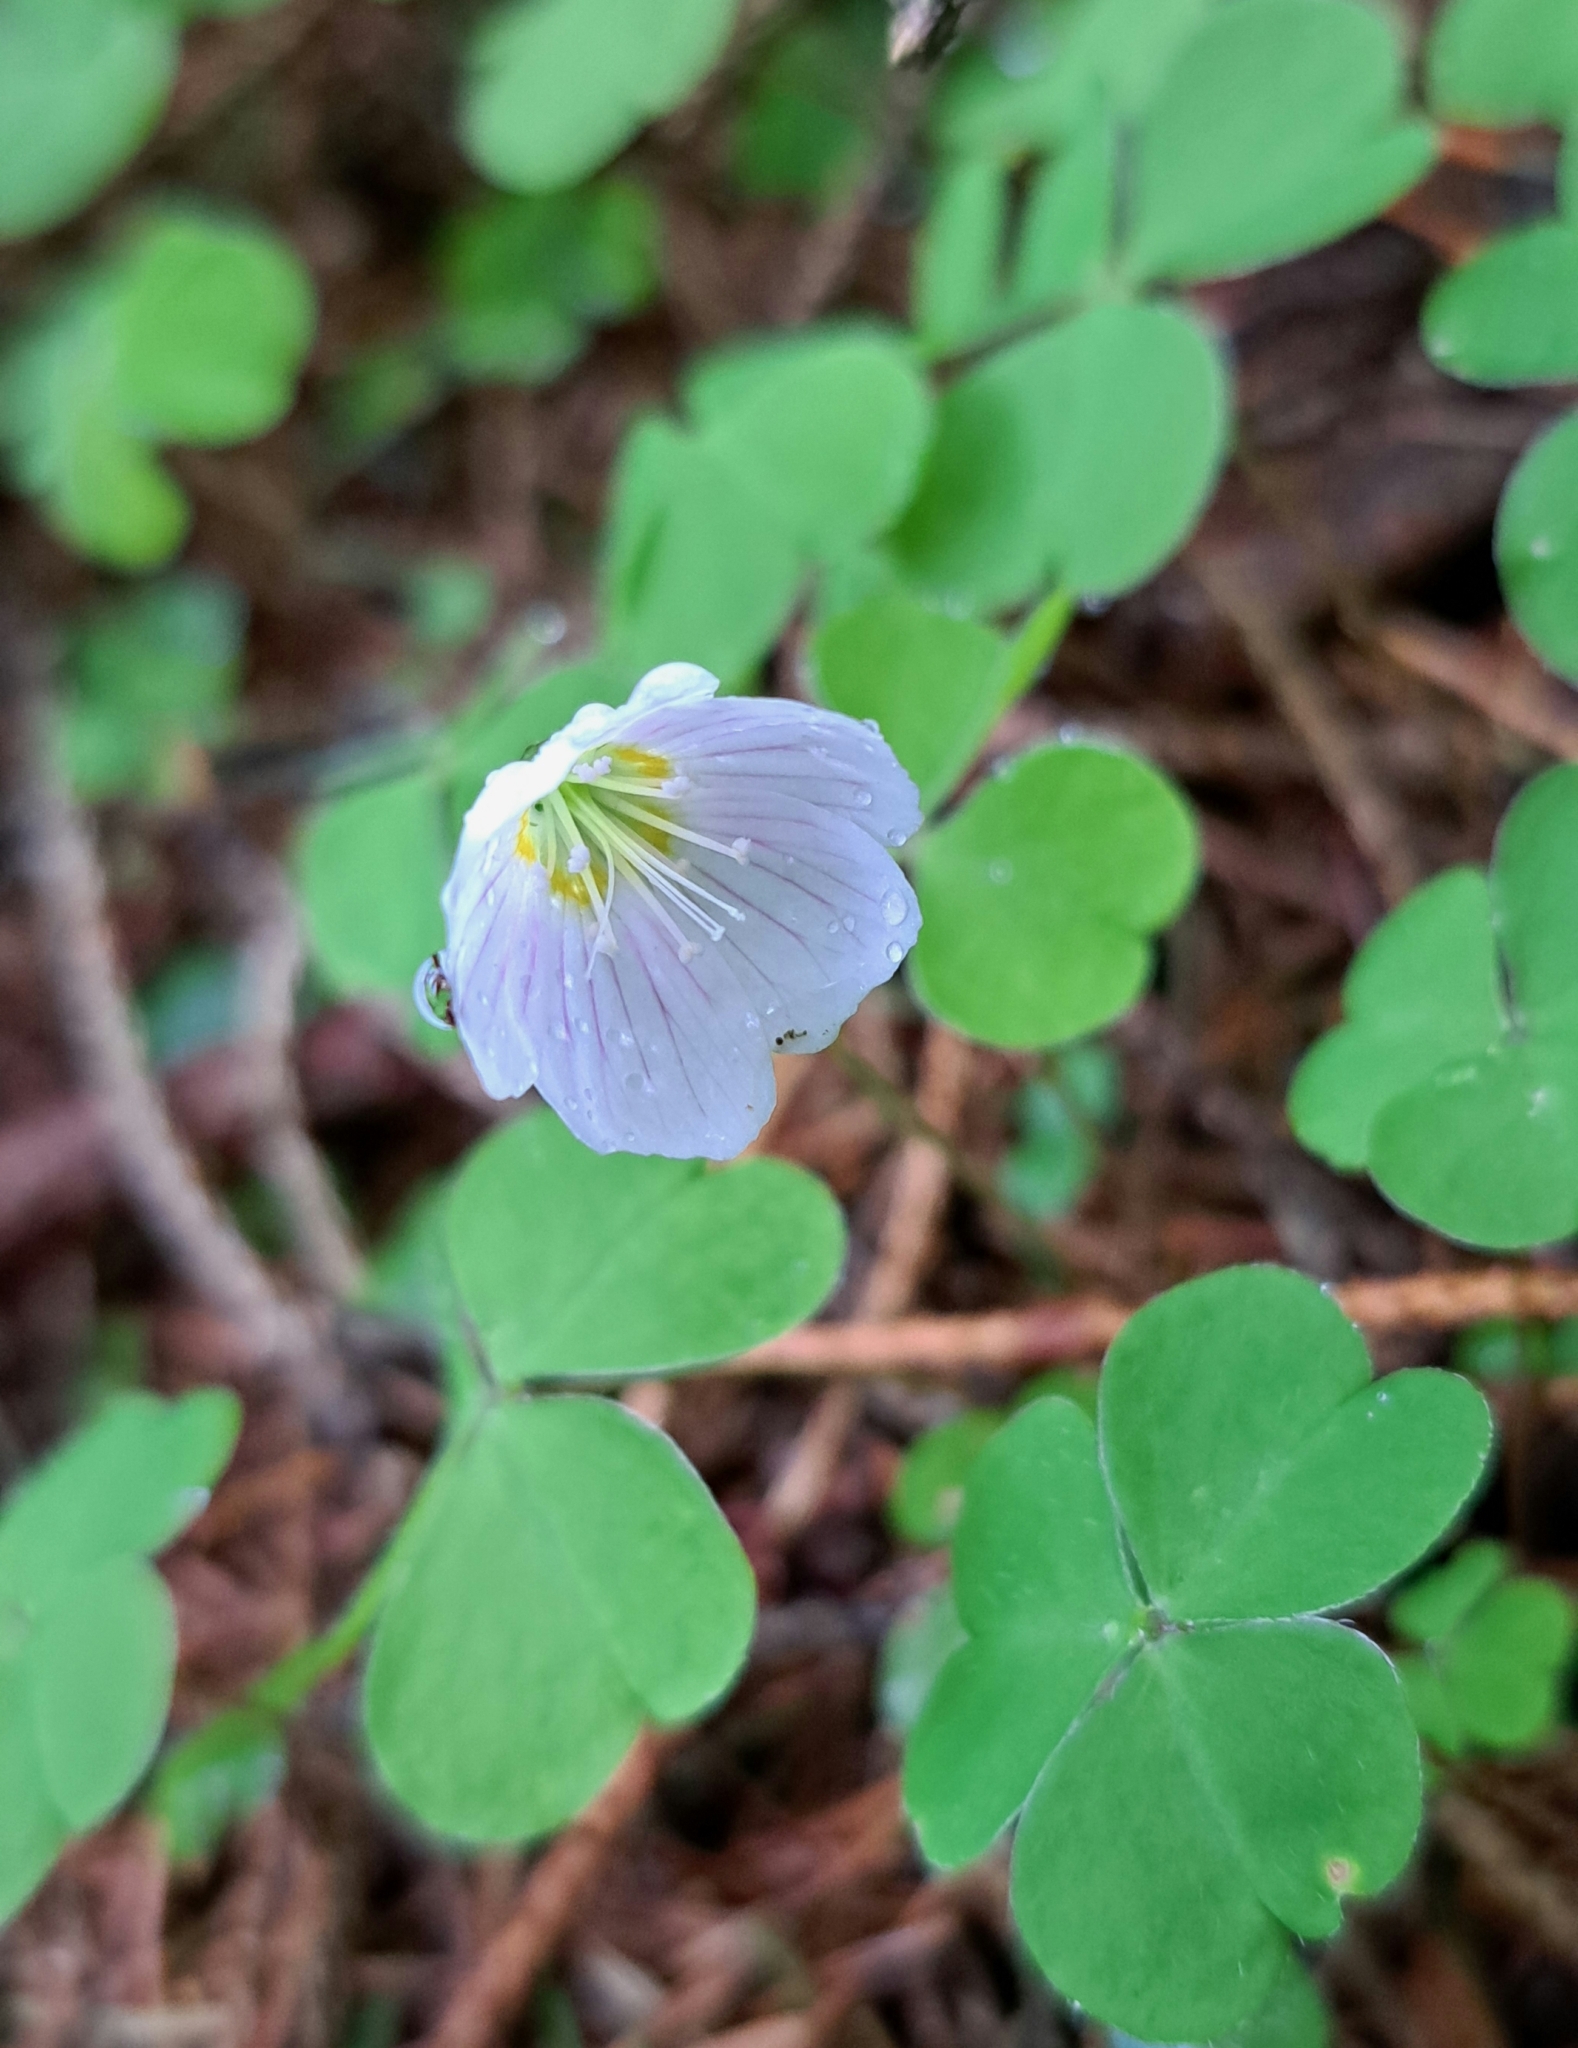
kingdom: Plantae
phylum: Tracheophyta
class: Magnoliopsida
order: Oxalidales
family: Oxalidaceae
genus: Oxalis
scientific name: Oxalis acetosella
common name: Wood-sorrel
